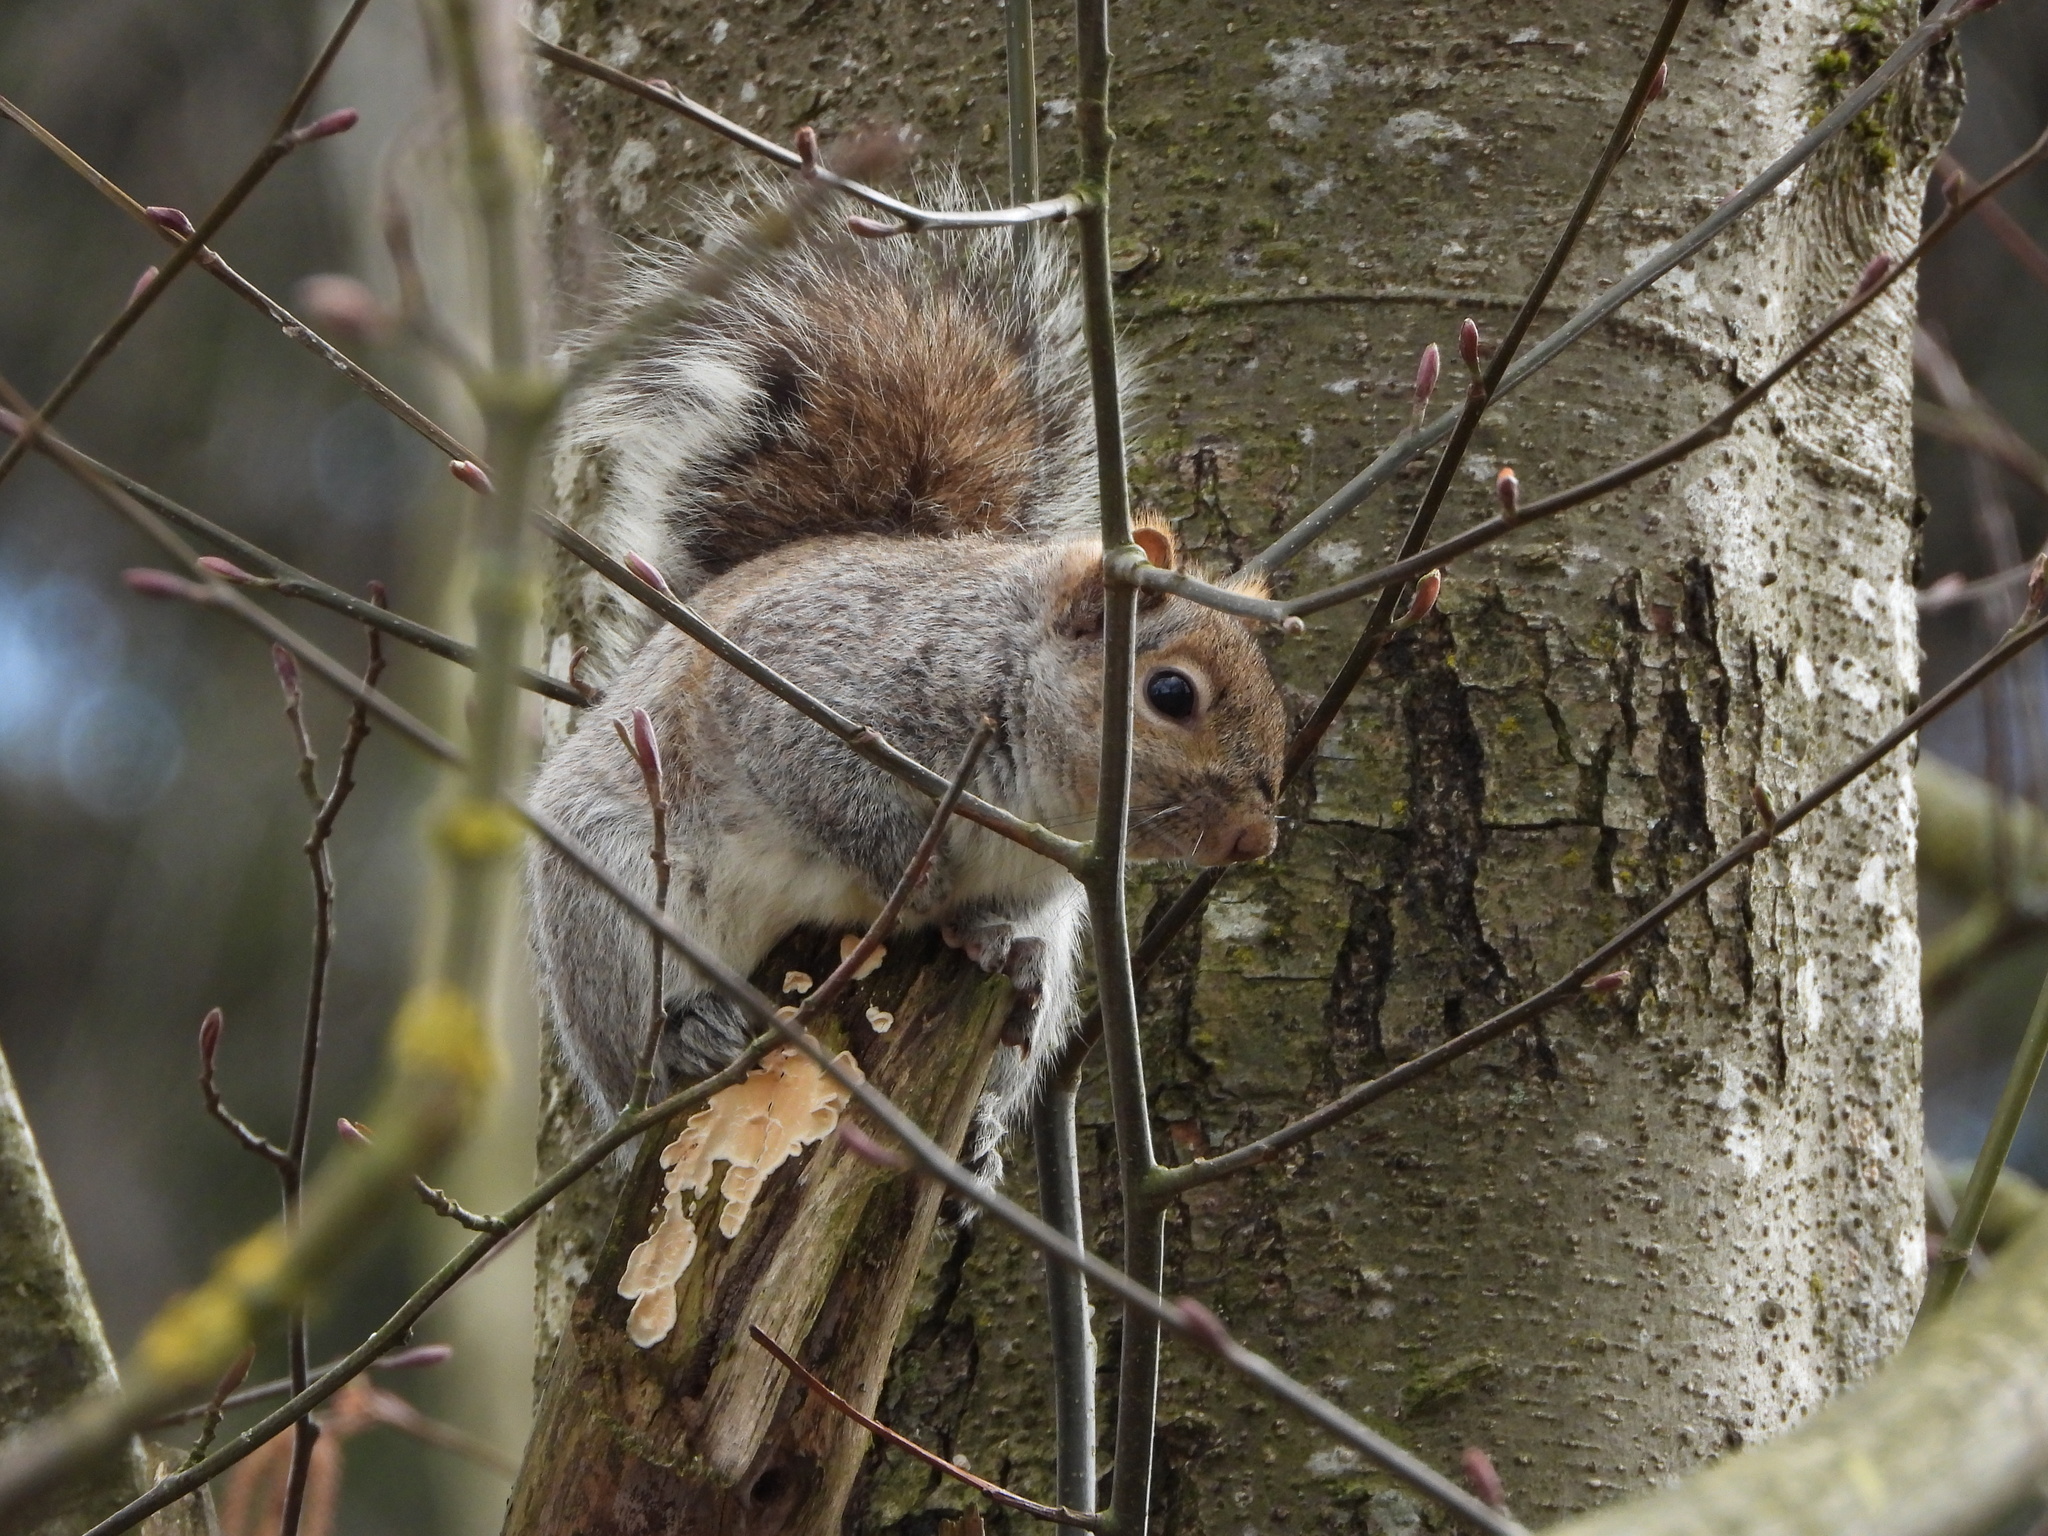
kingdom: Animalia
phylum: Chordata
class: Mammalia
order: Rodentia
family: Sciuridae
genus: Sciurus
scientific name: Sciurus carolinensis
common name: Eastern gray squirrel
